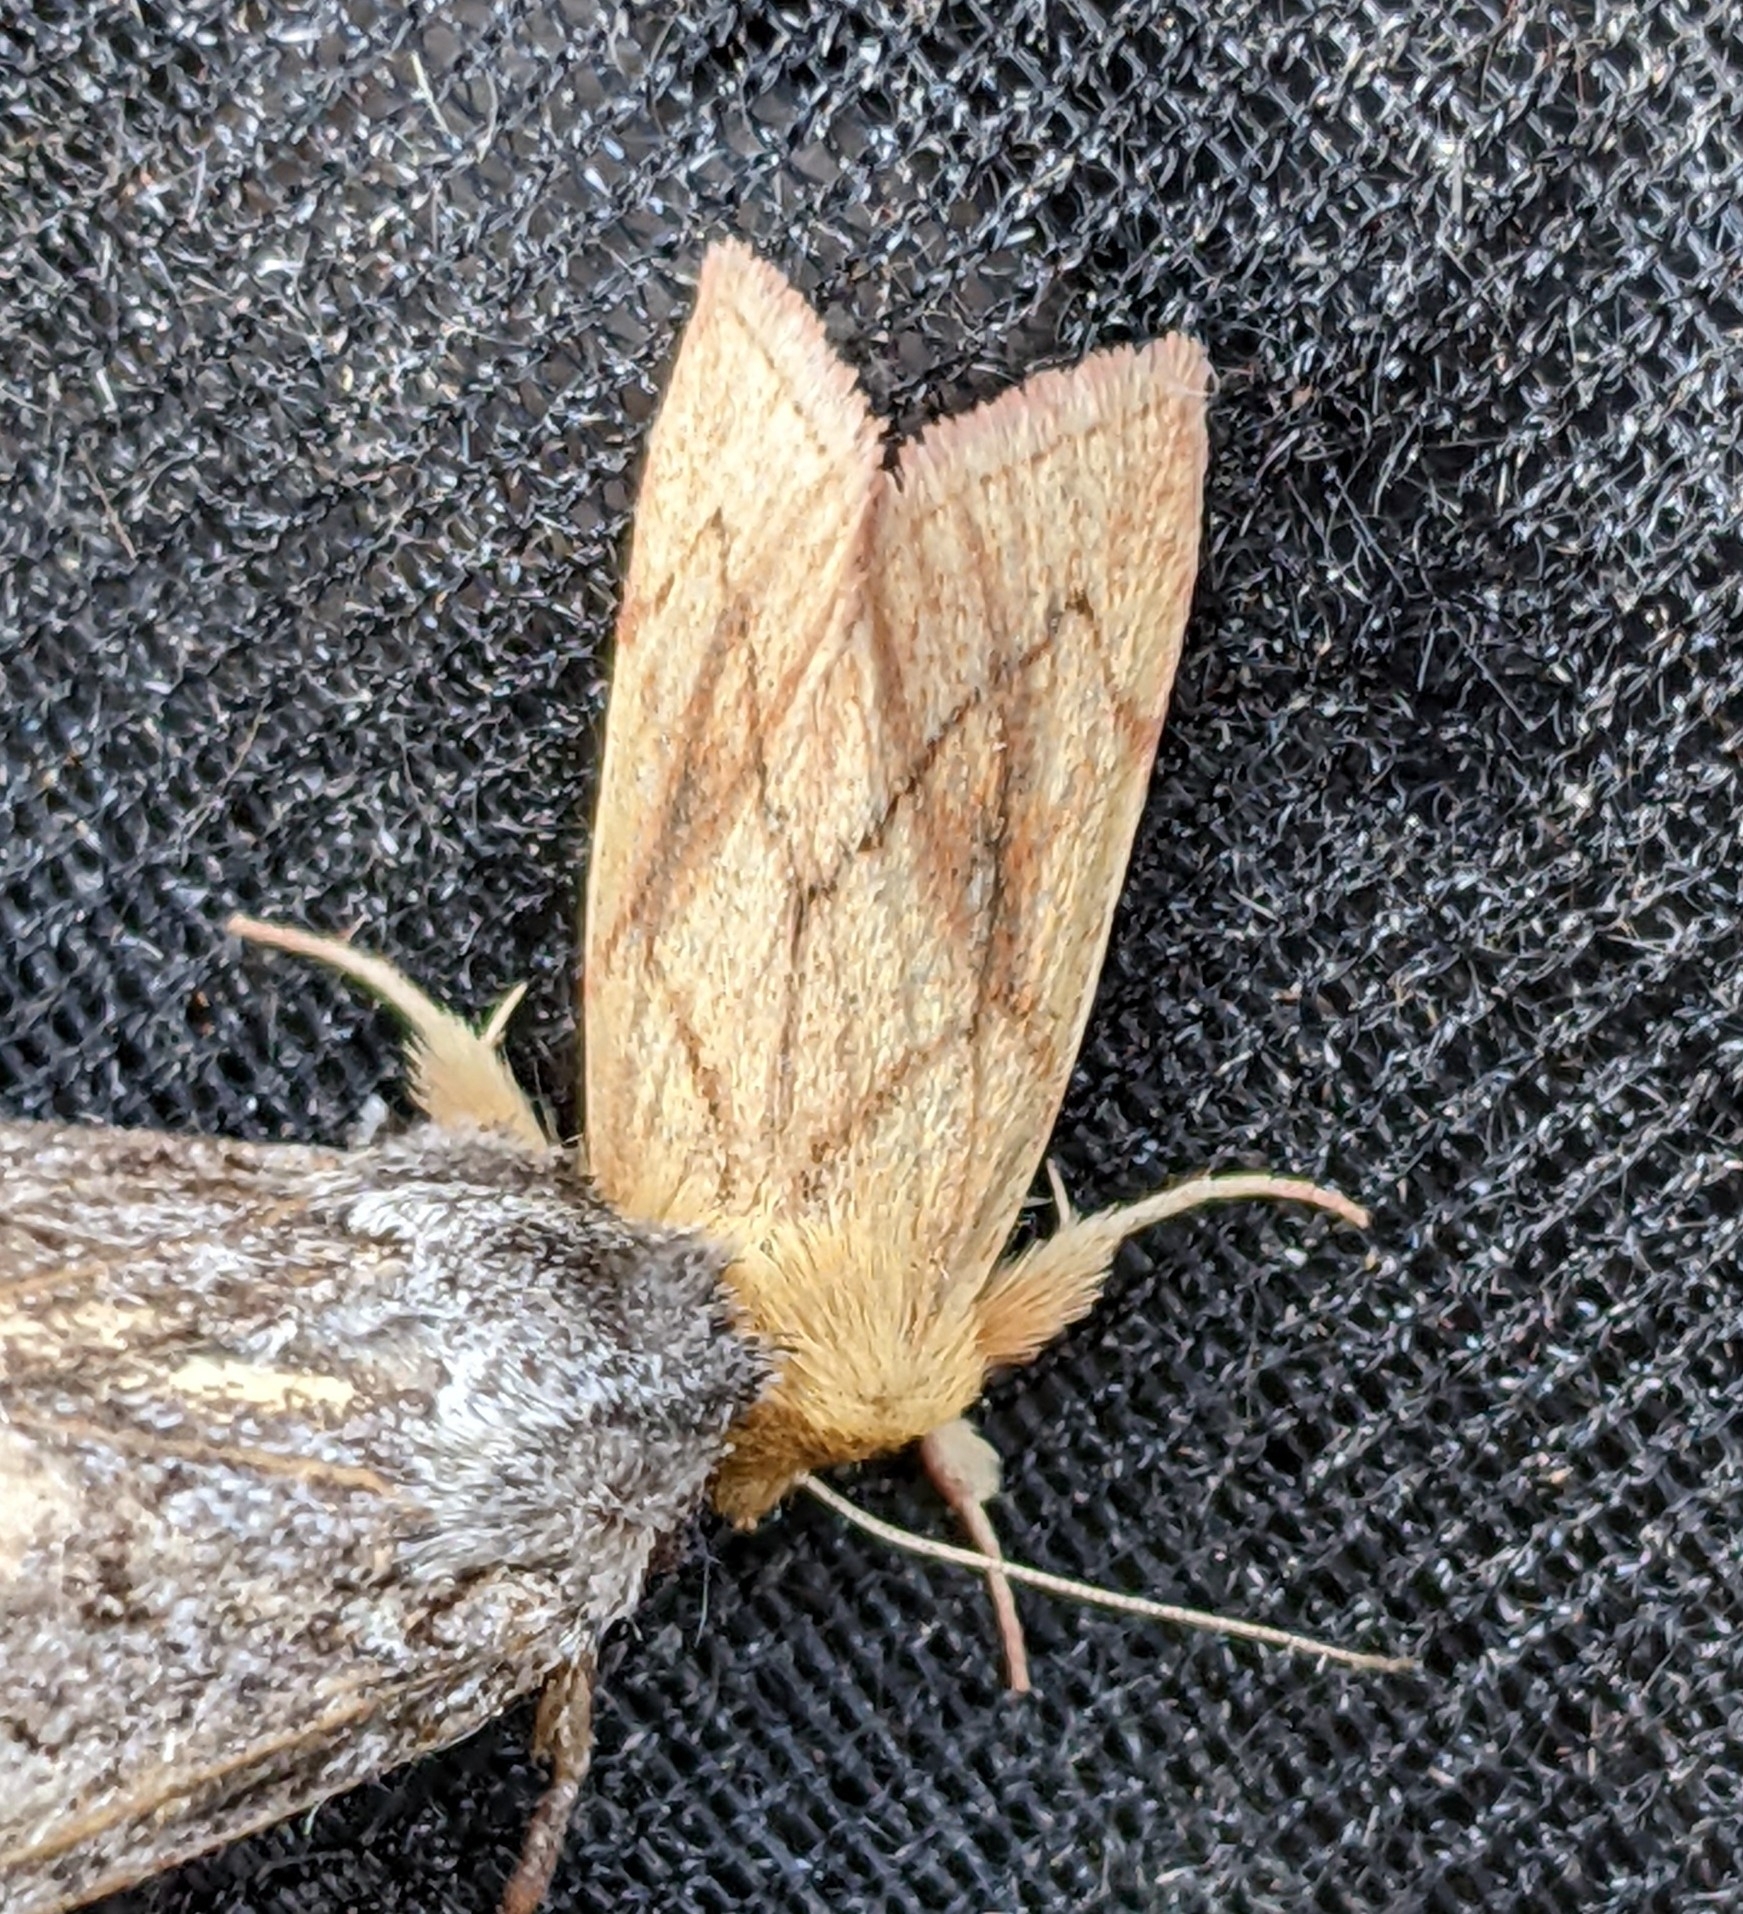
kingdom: Animalia
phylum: Arthropoda
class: Insecta
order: Lepidoptera
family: Noctuidae
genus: Zosteropoda
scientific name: Zosteropoda hirtipes
